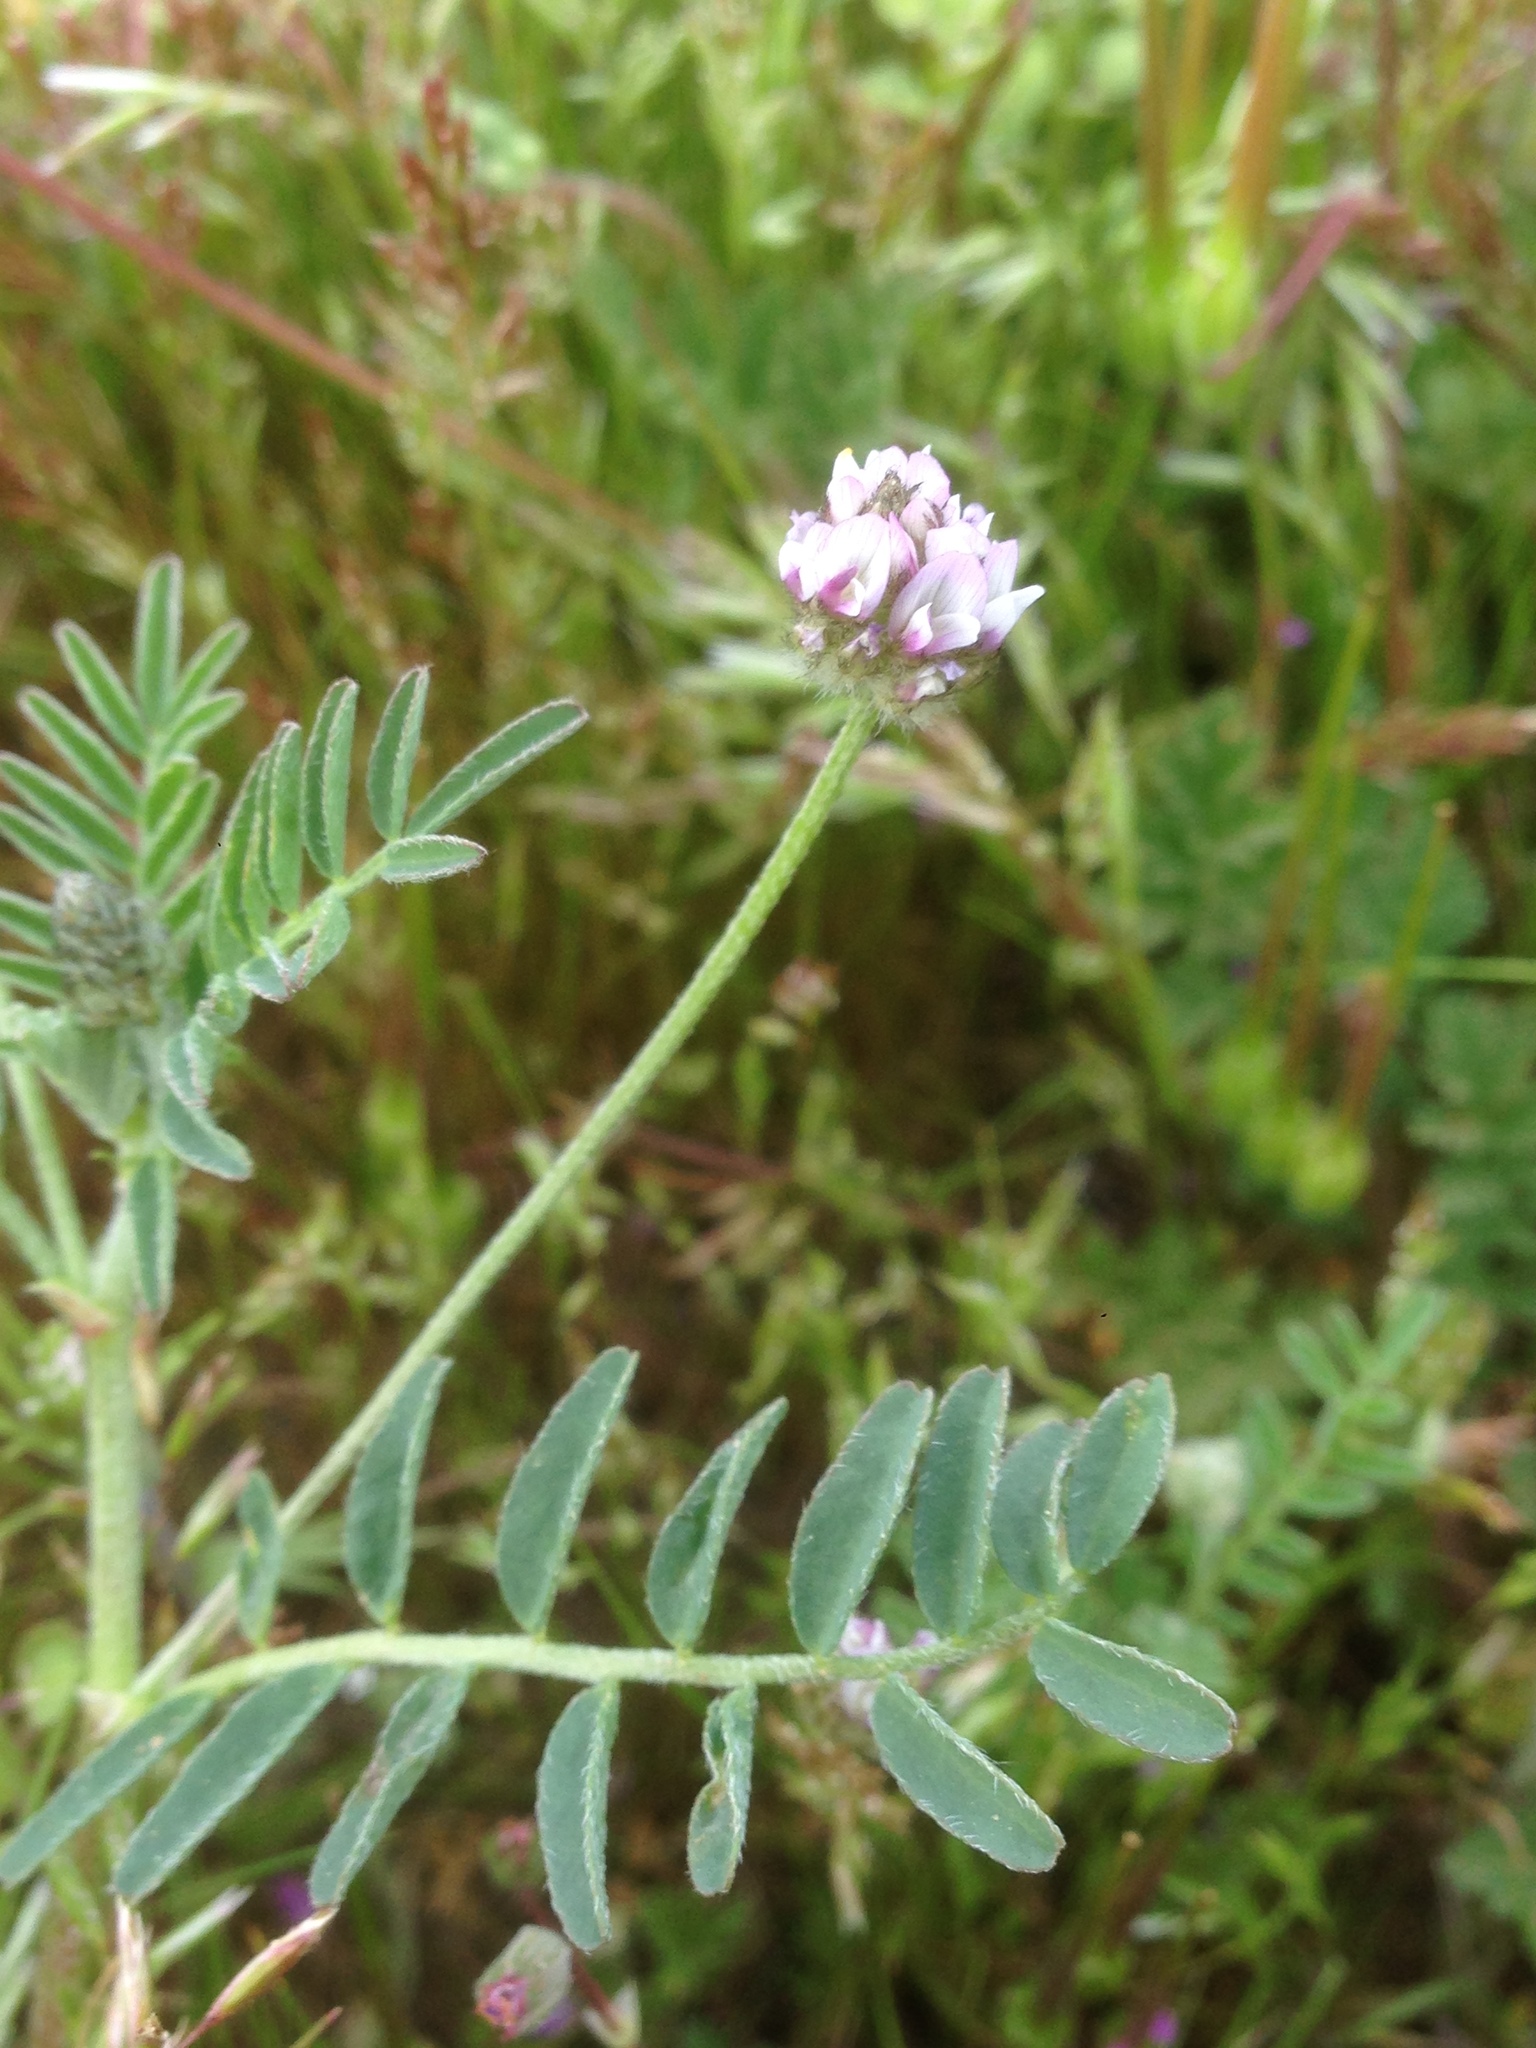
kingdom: Plantae
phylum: Tracheophyta
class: Magnoliopsida
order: Fabales
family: Fabaceae
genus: Astragalus
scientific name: Astragalus didymocarpus
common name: Dwarf white milkvetch
